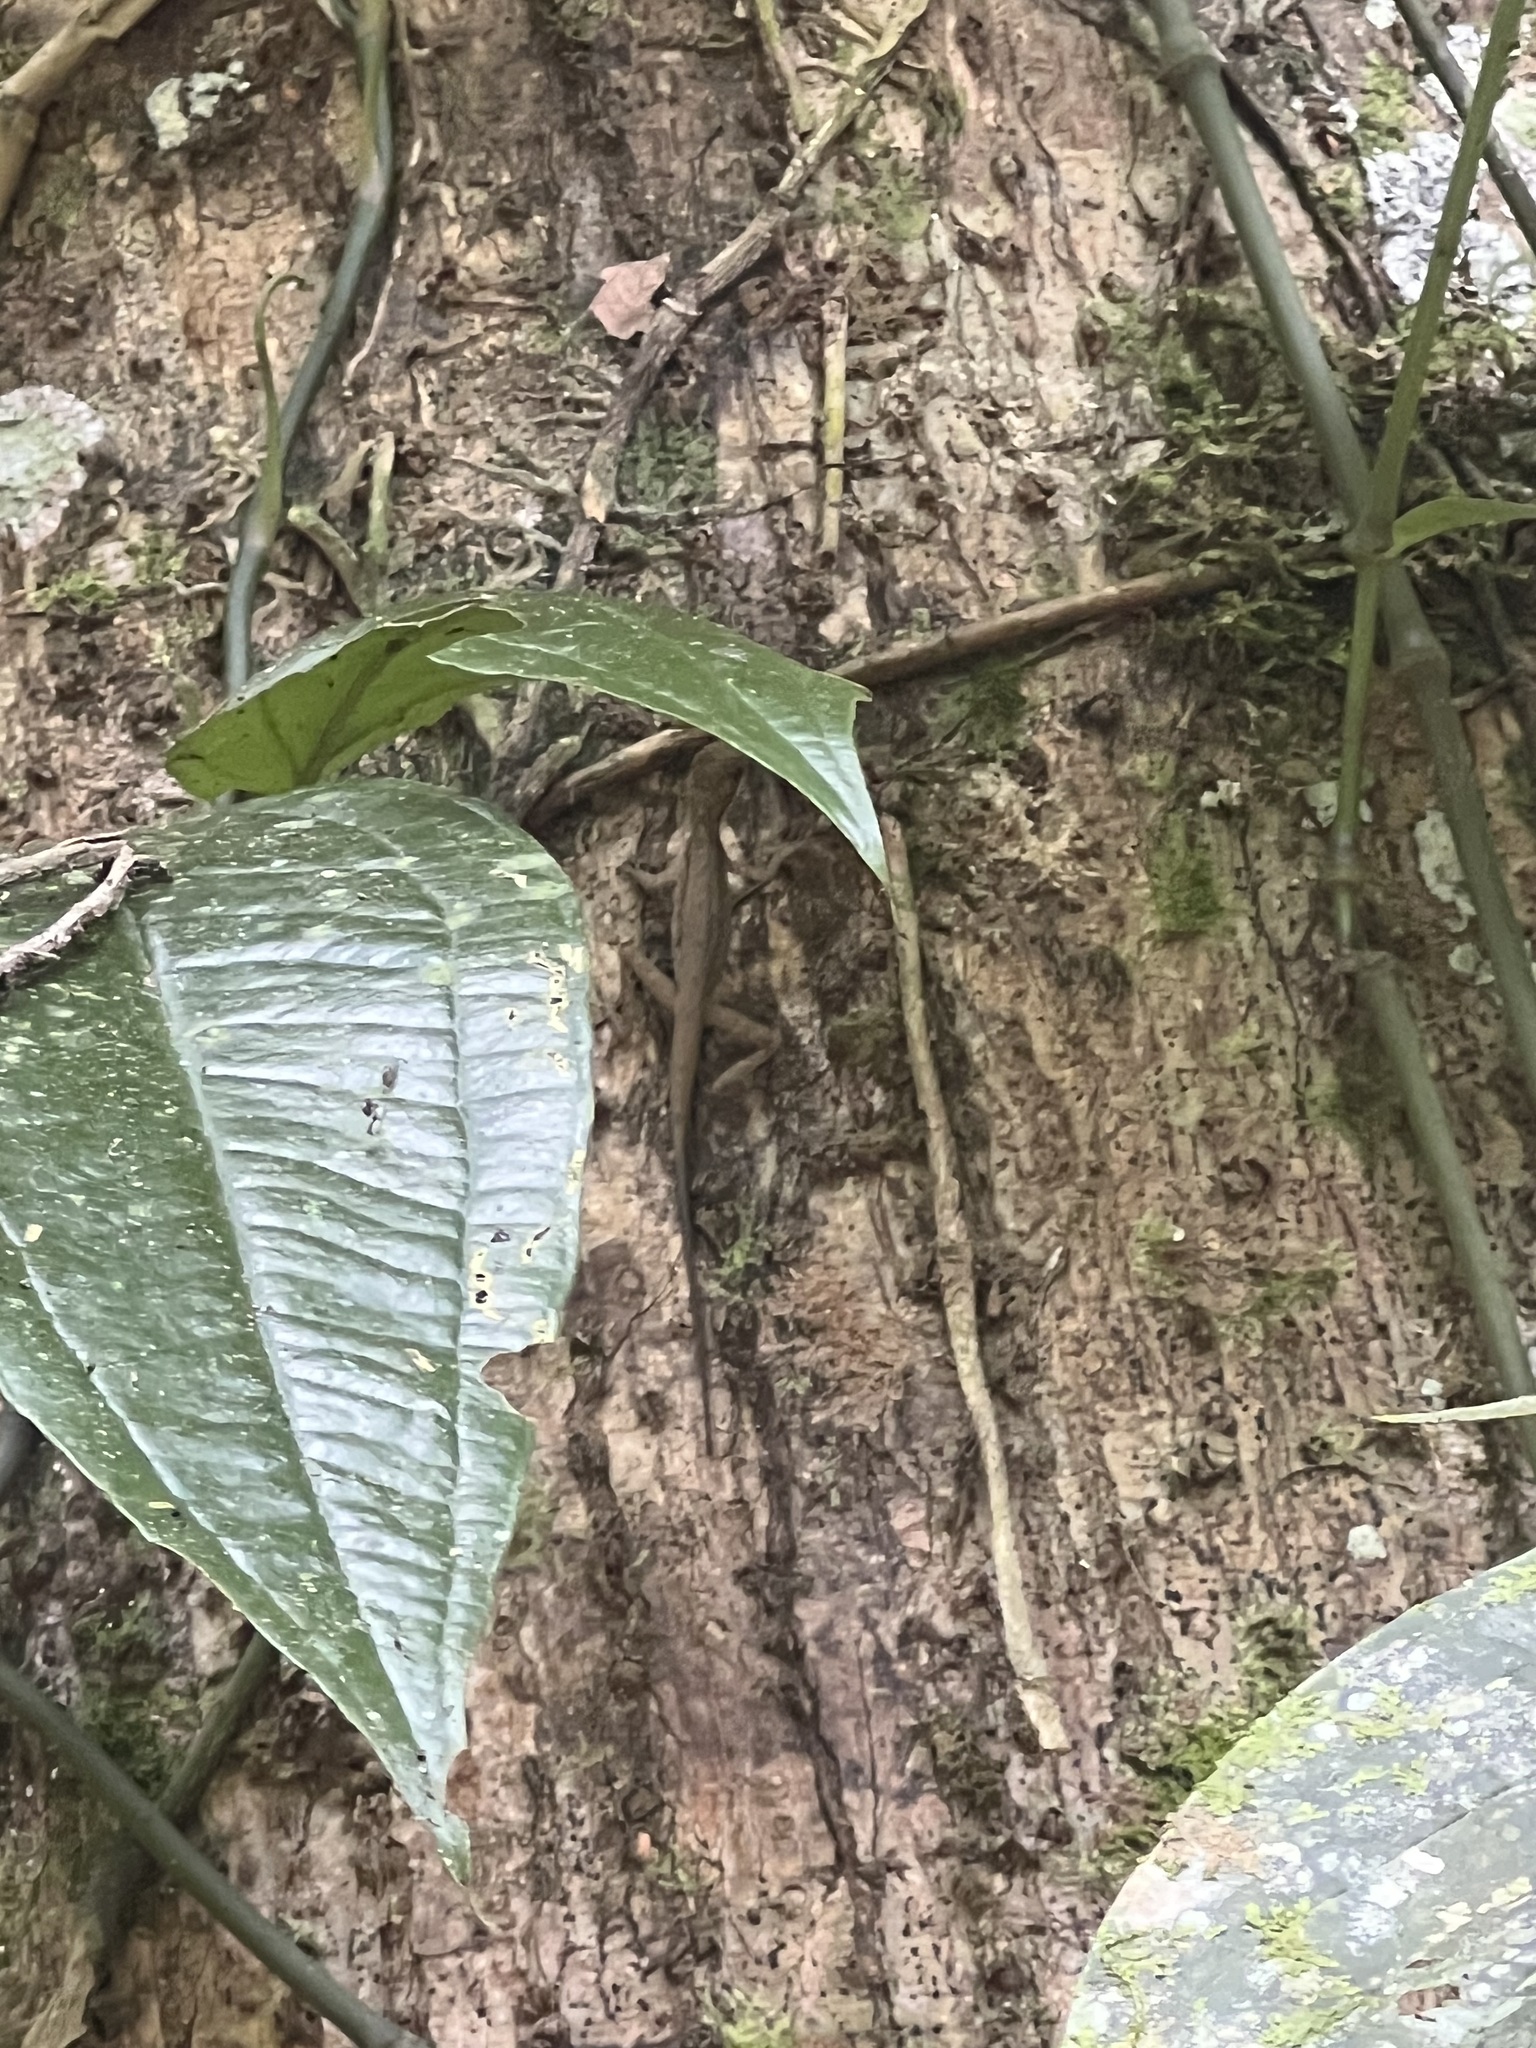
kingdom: Animalia
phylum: Chordata
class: Squamata
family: Dactyloidae
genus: Anolis
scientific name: Anolis limifrons
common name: Border anole
